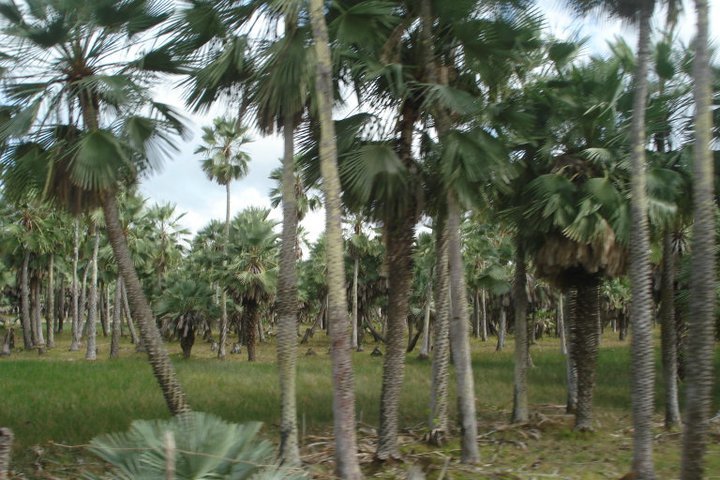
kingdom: Plantae
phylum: Tracheophyta
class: Liliopsida
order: Arecales
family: Arecaceae
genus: Copernicia
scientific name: Copernicia prunifera
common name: Carnauba palm
